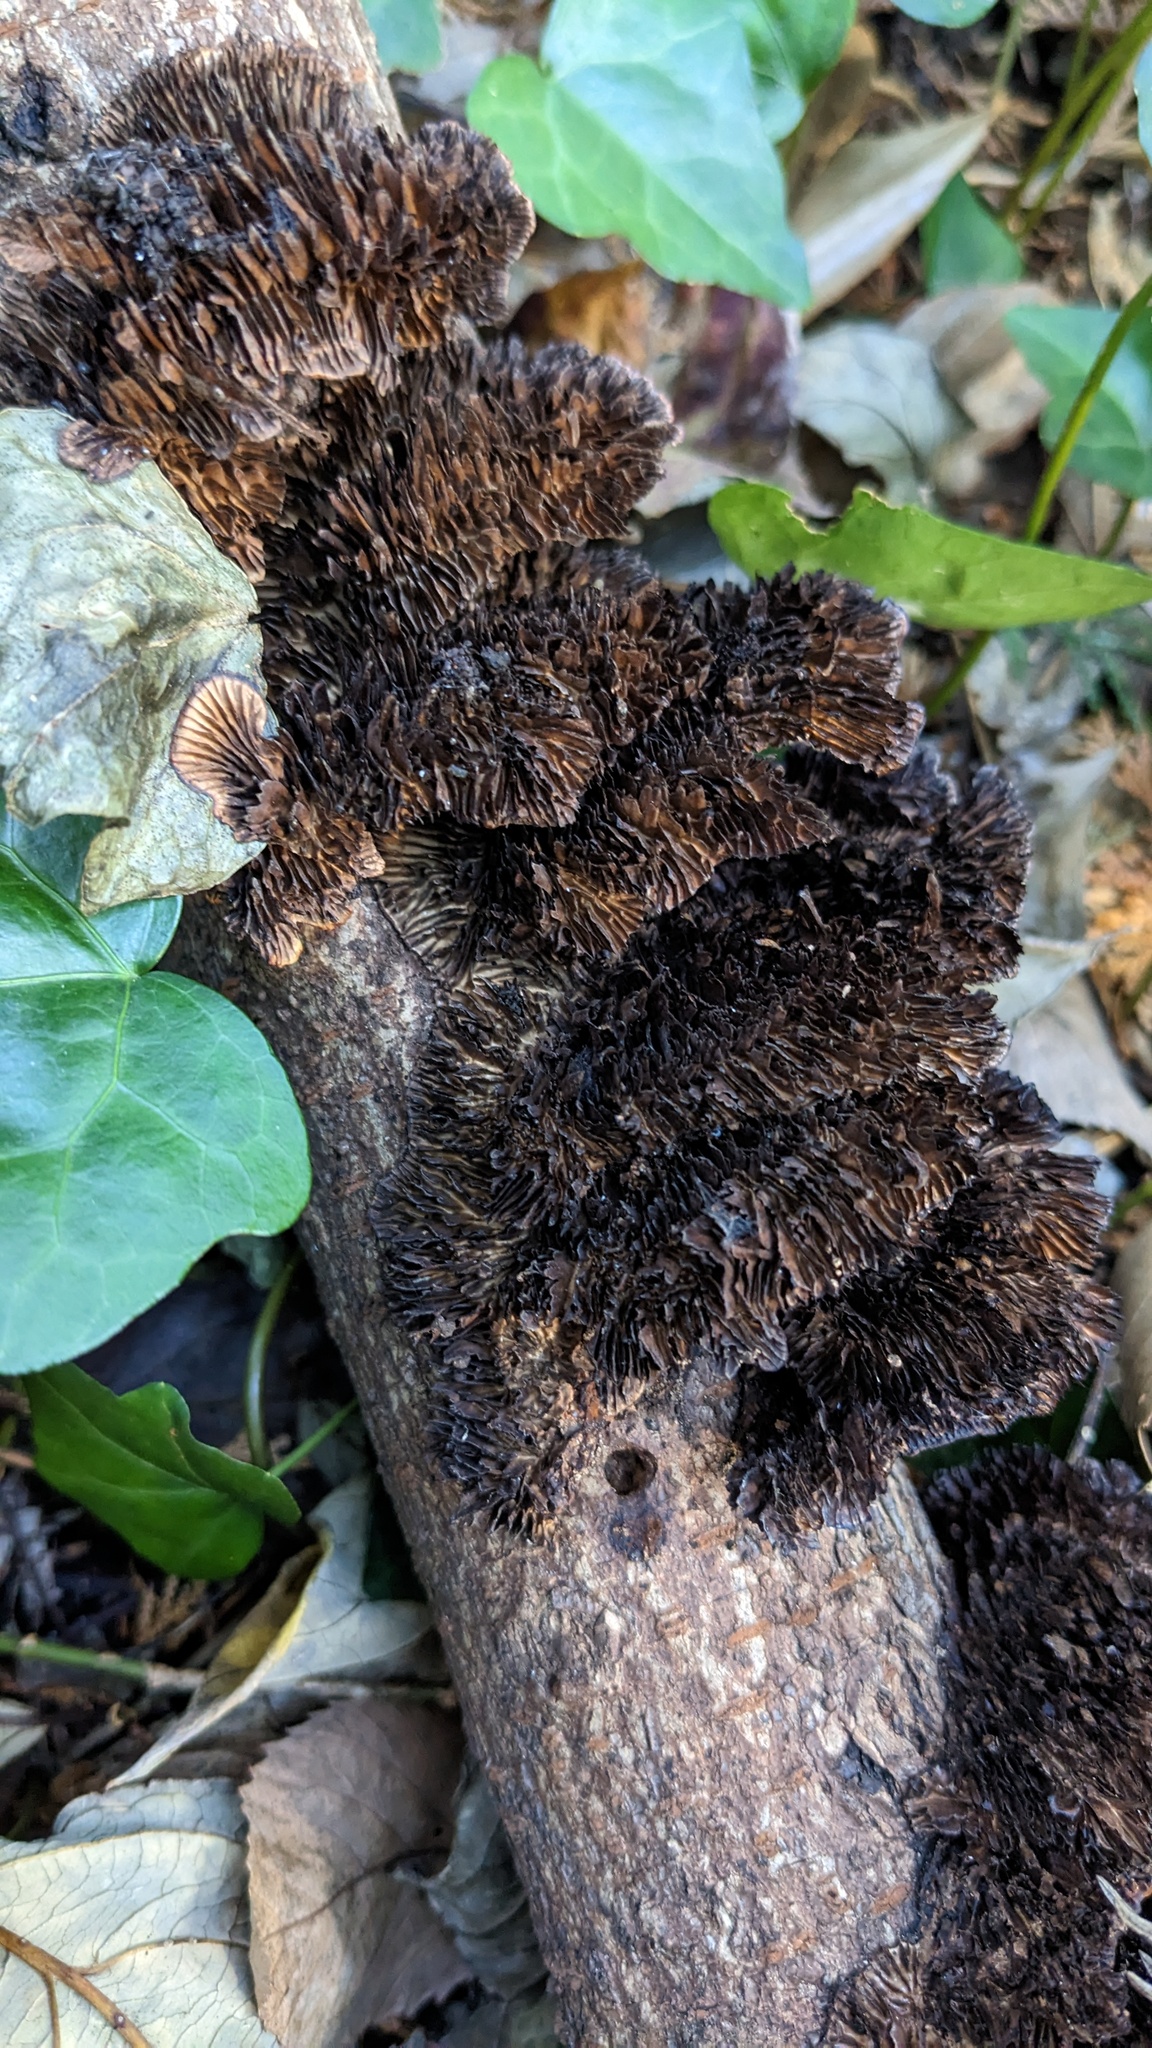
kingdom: Fungi
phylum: Basidiomycota
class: Agaricomycetes
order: Polyporales
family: Polyporaceae
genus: Daedaleopsis
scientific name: Daedaleopsis tricolor
